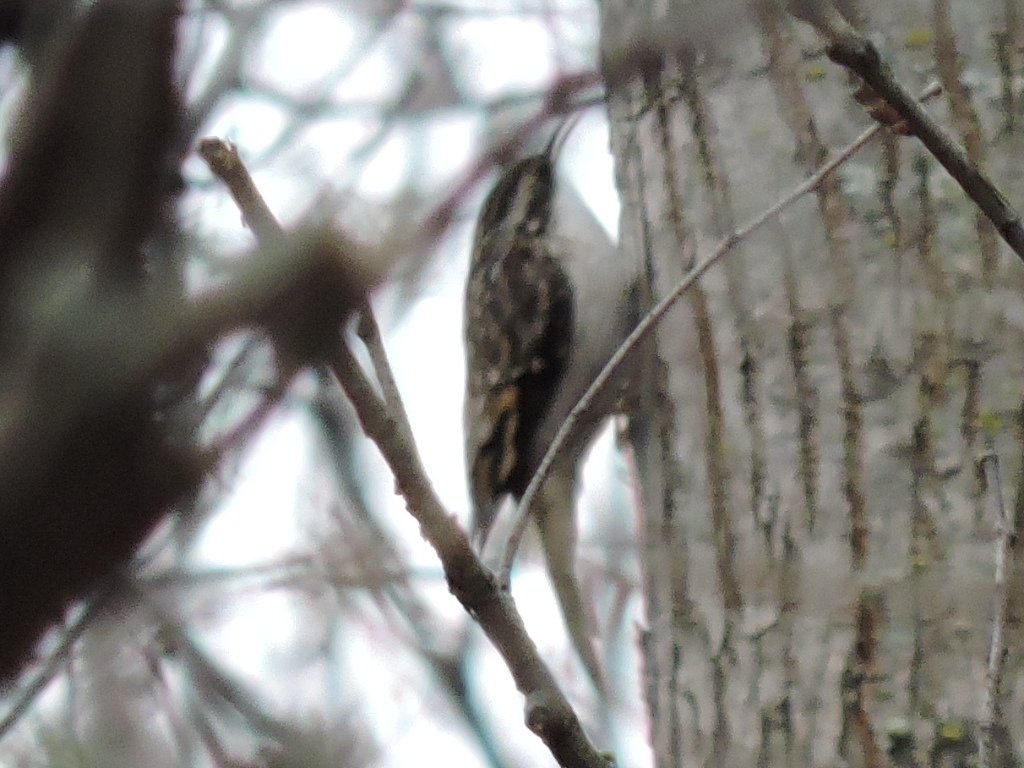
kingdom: Animalia
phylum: Chordata
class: Aves
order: Passeriformes
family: Certhiidae
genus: Certhia
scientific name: Certhia americana
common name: Brown creeper
